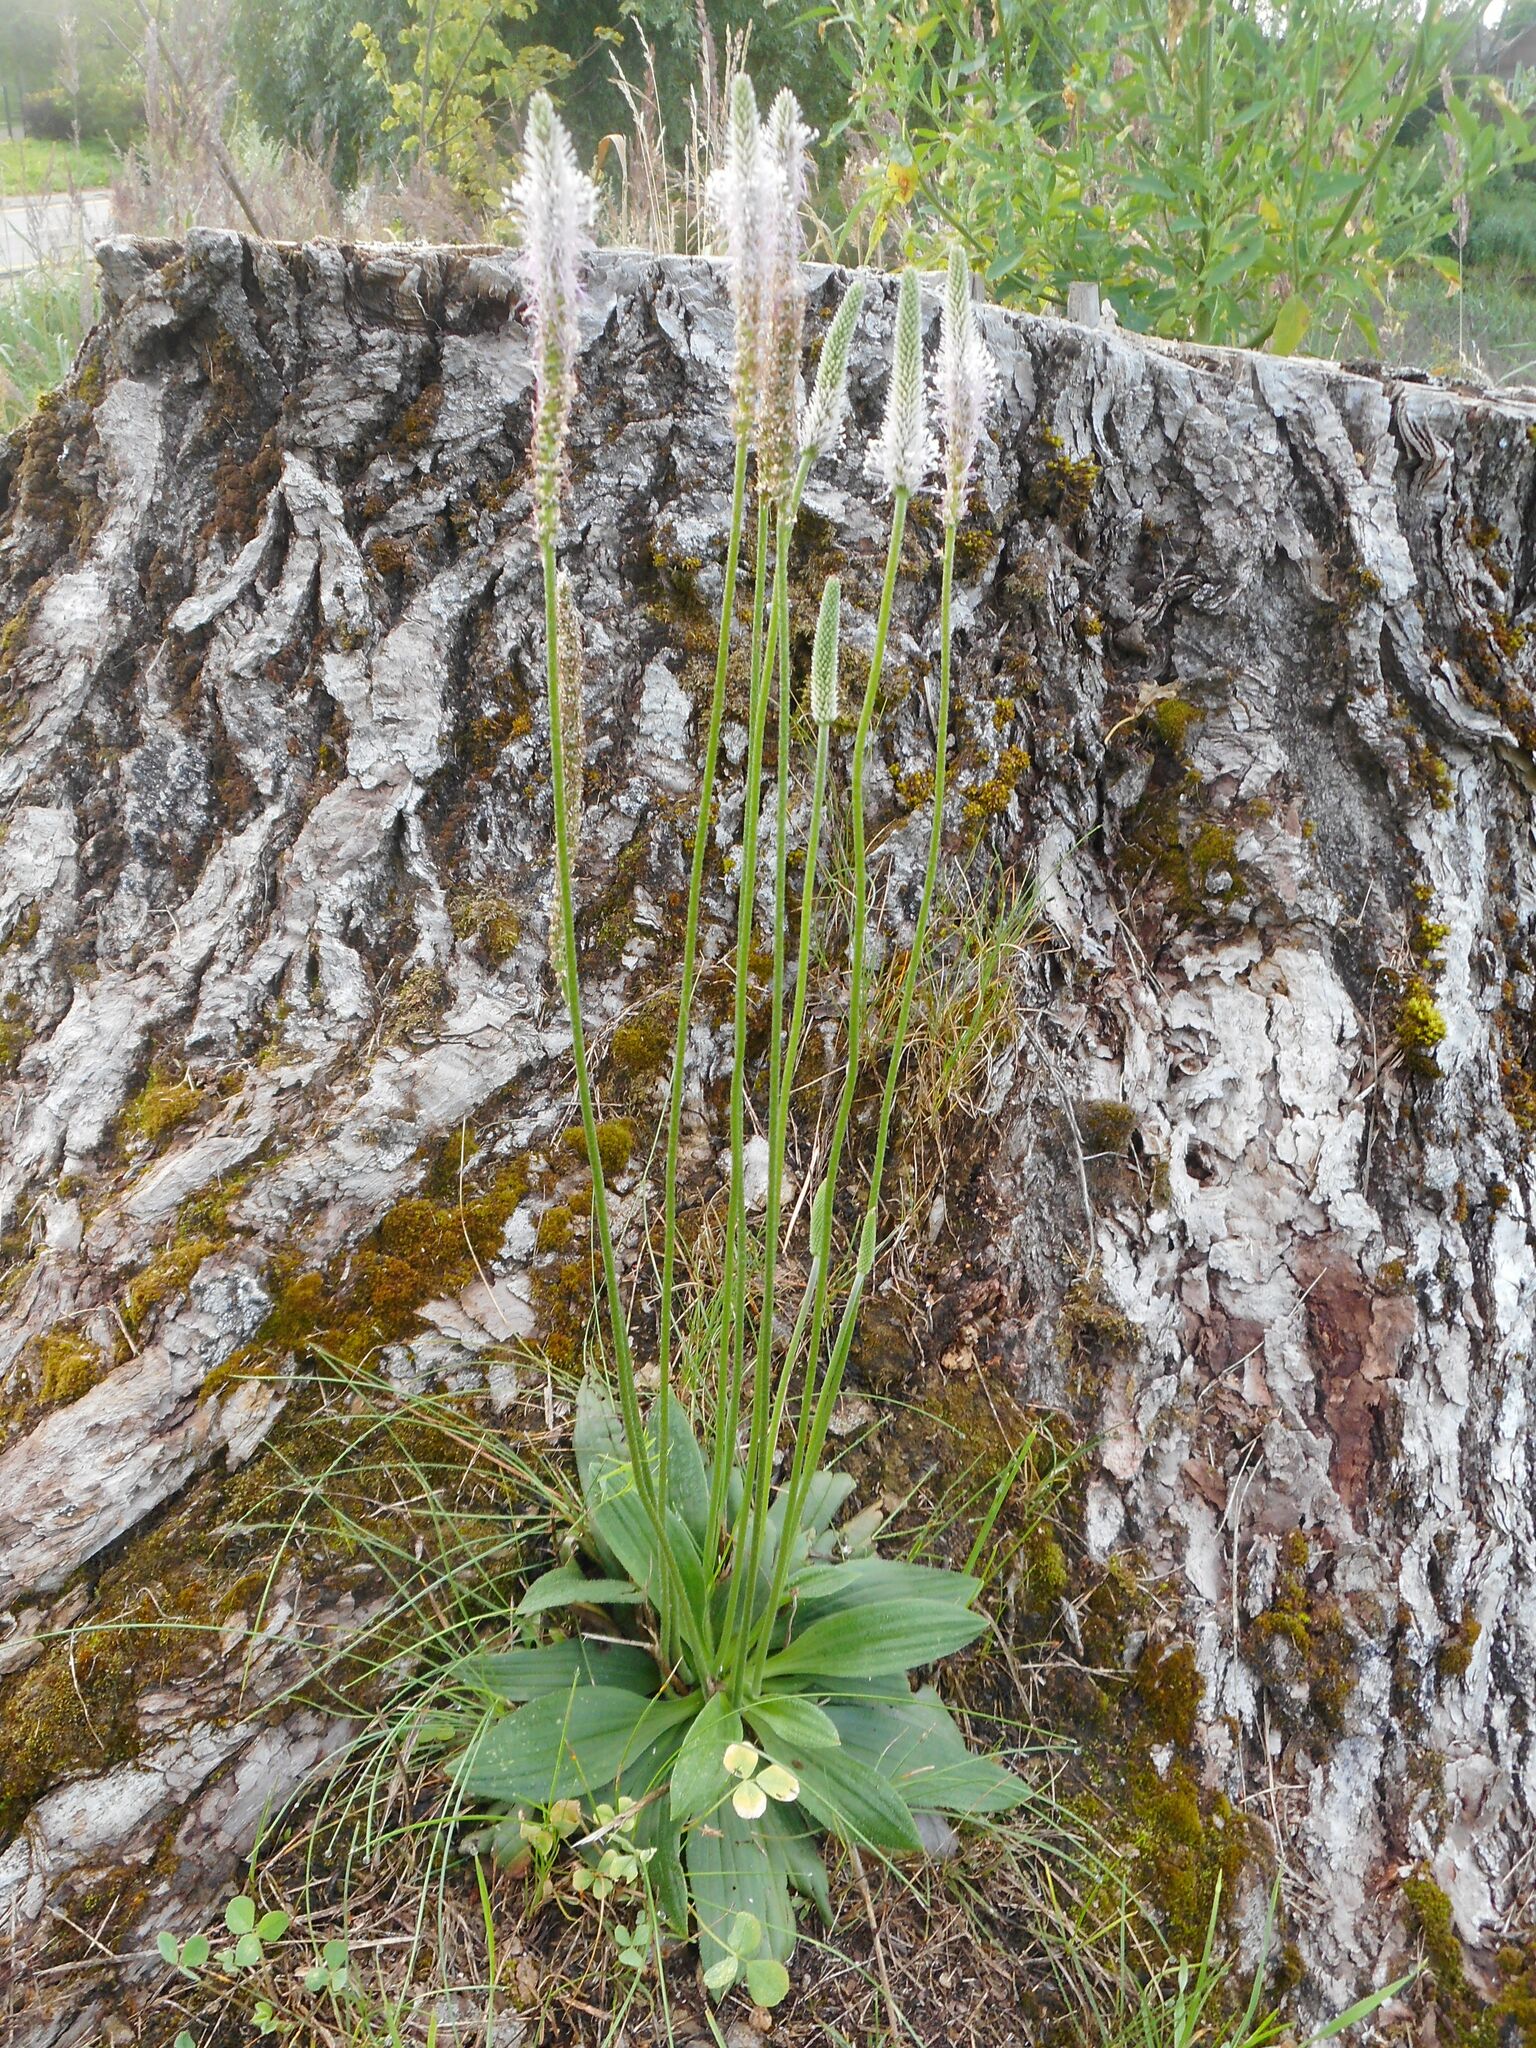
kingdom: Plantae
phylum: Tracheophyta
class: Magnoliopsida
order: Lamiales
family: Plantaginaceae
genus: Plantago
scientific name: Plantago media
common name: Hoary plantain
